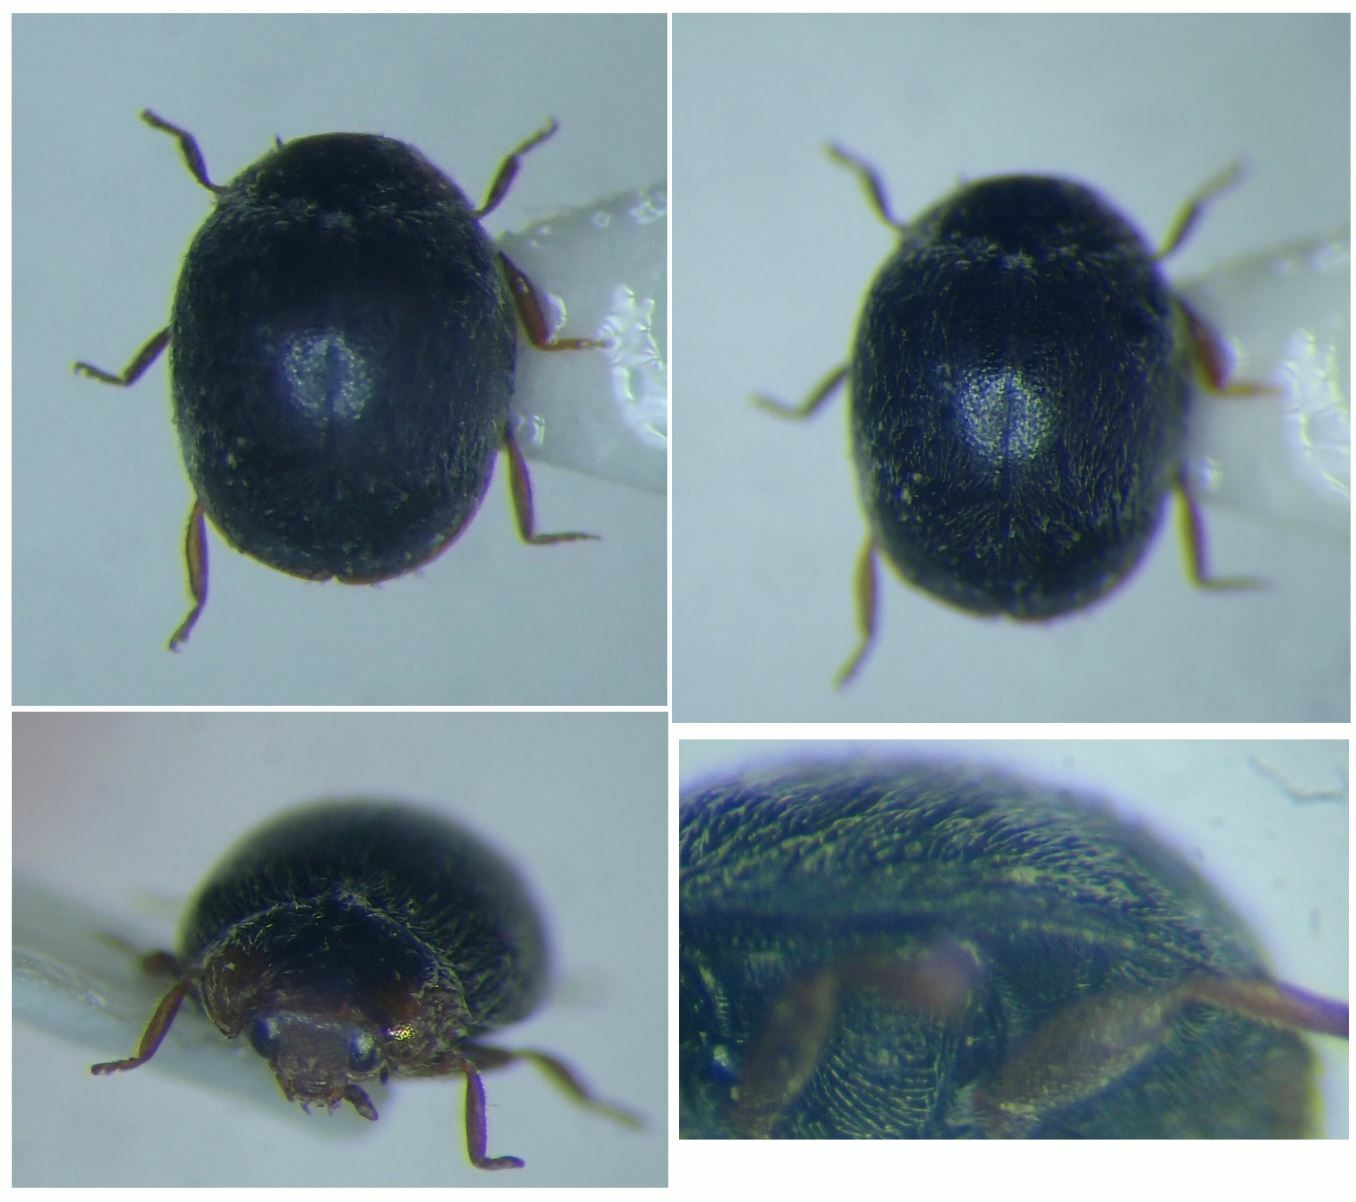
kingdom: Animalia
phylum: Arthropoda
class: Insecta
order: Coleoptera
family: Coccinellidae
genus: Scymnus
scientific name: Scymnus auritus
